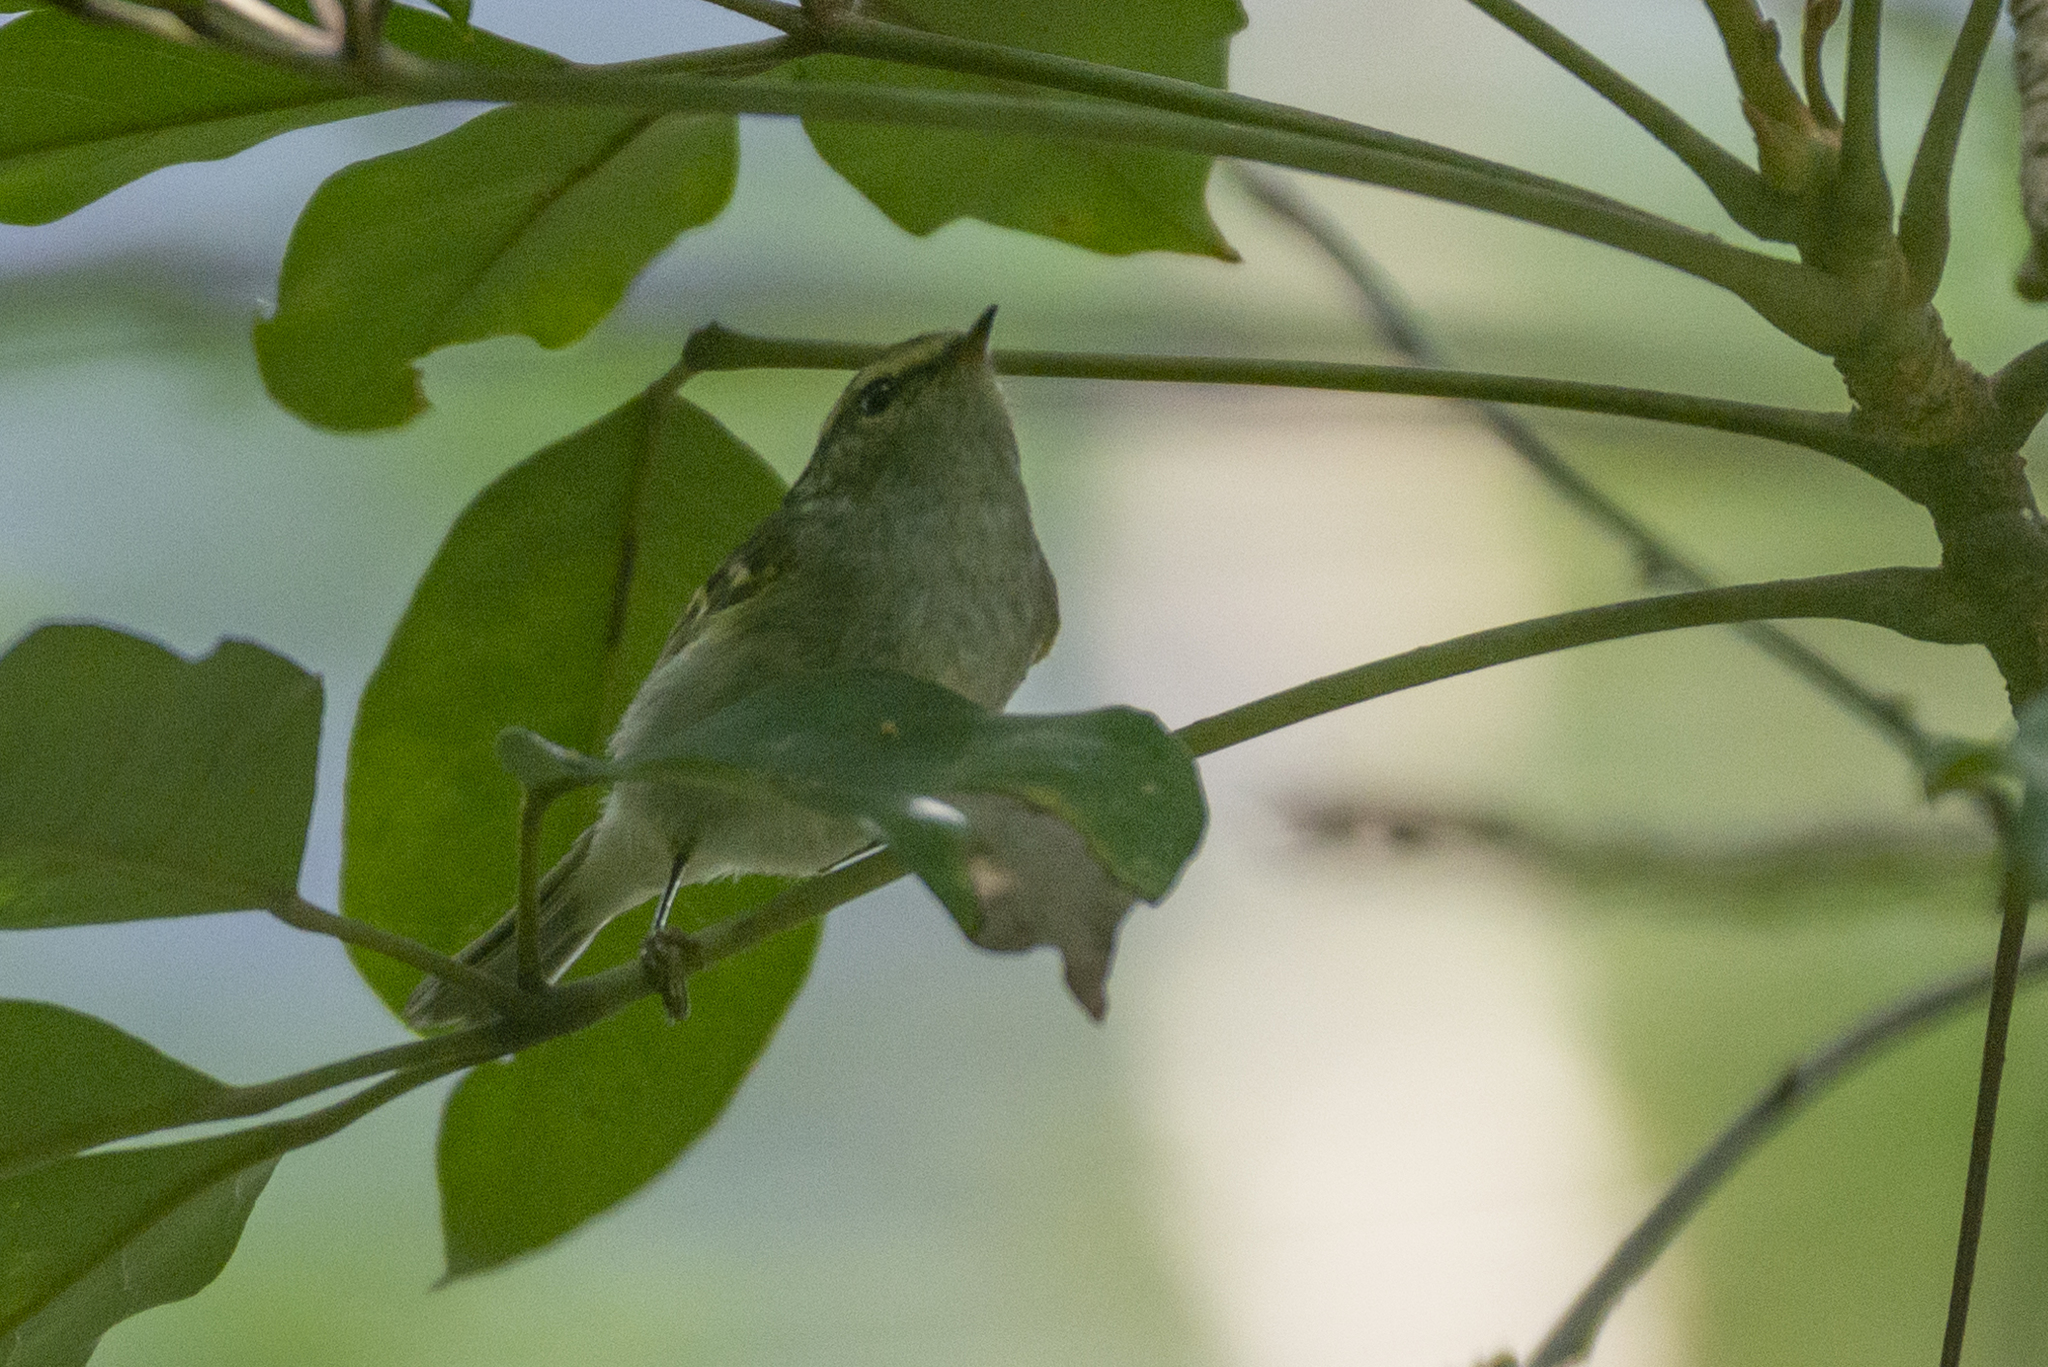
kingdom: Animalia
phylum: Chordata
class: Aves
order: Passeriformes
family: Phylloscopidae
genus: Phylloscopus
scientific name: Phylloscopus proregulus
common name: Pallas's leaf warbler
